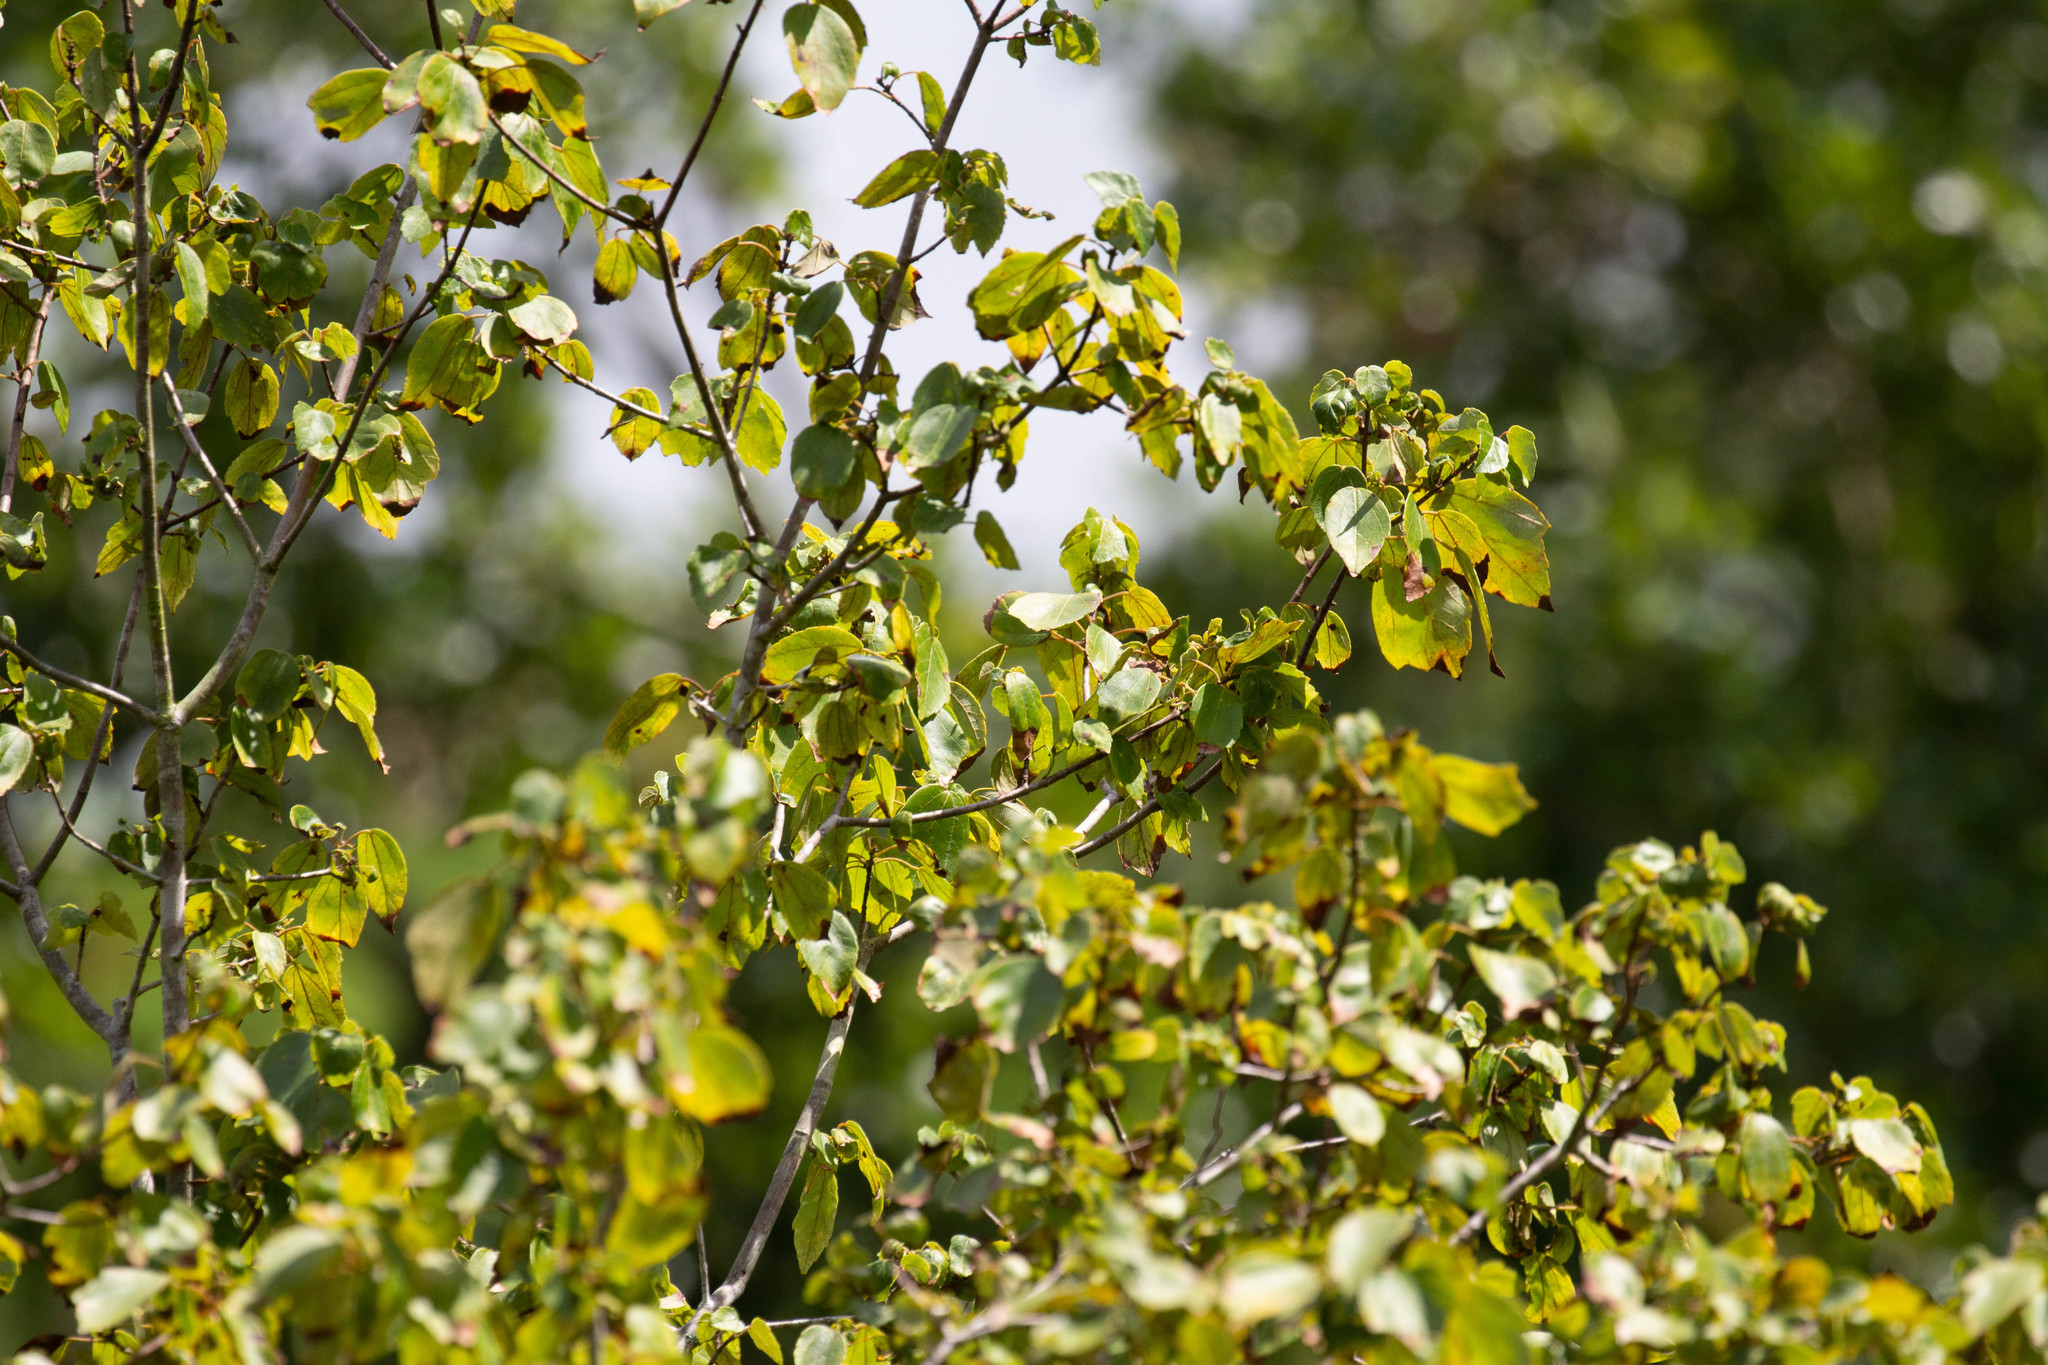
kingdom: Plantae
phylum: Tracheophyta
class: Magnoliopsida
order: Sapindales
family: Sapindaceae
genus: Acer
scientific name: Acer rubrum
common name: Red maple
